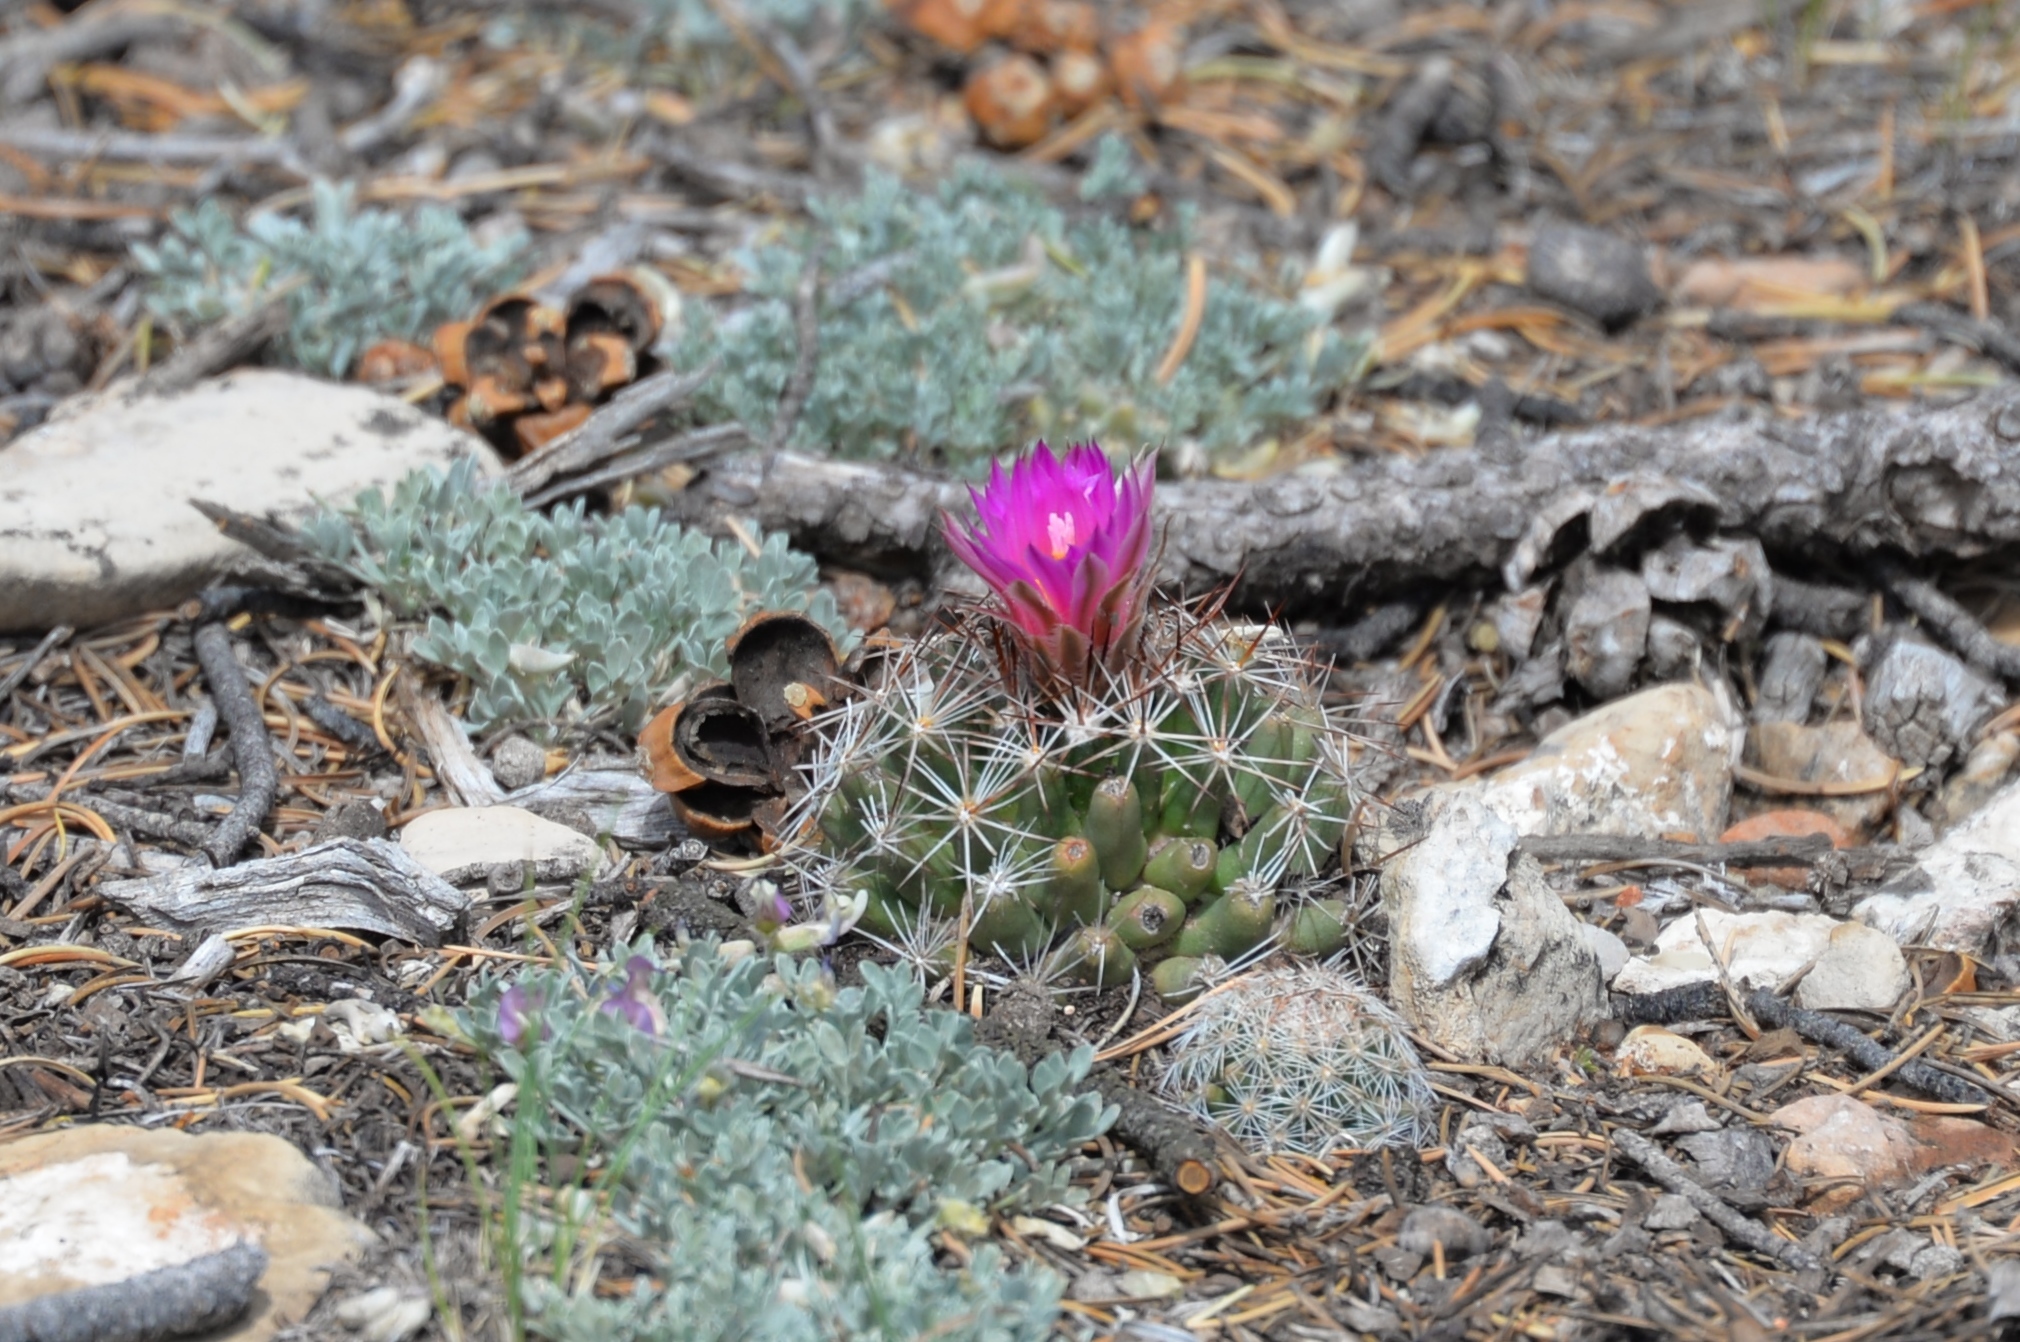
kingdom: Plantae
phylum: Tracheophyta
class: Magnoliopsida
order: Caryophyllales
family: Cactaceae
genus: Pelecyphora
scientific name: Pelecyphora vivipara
